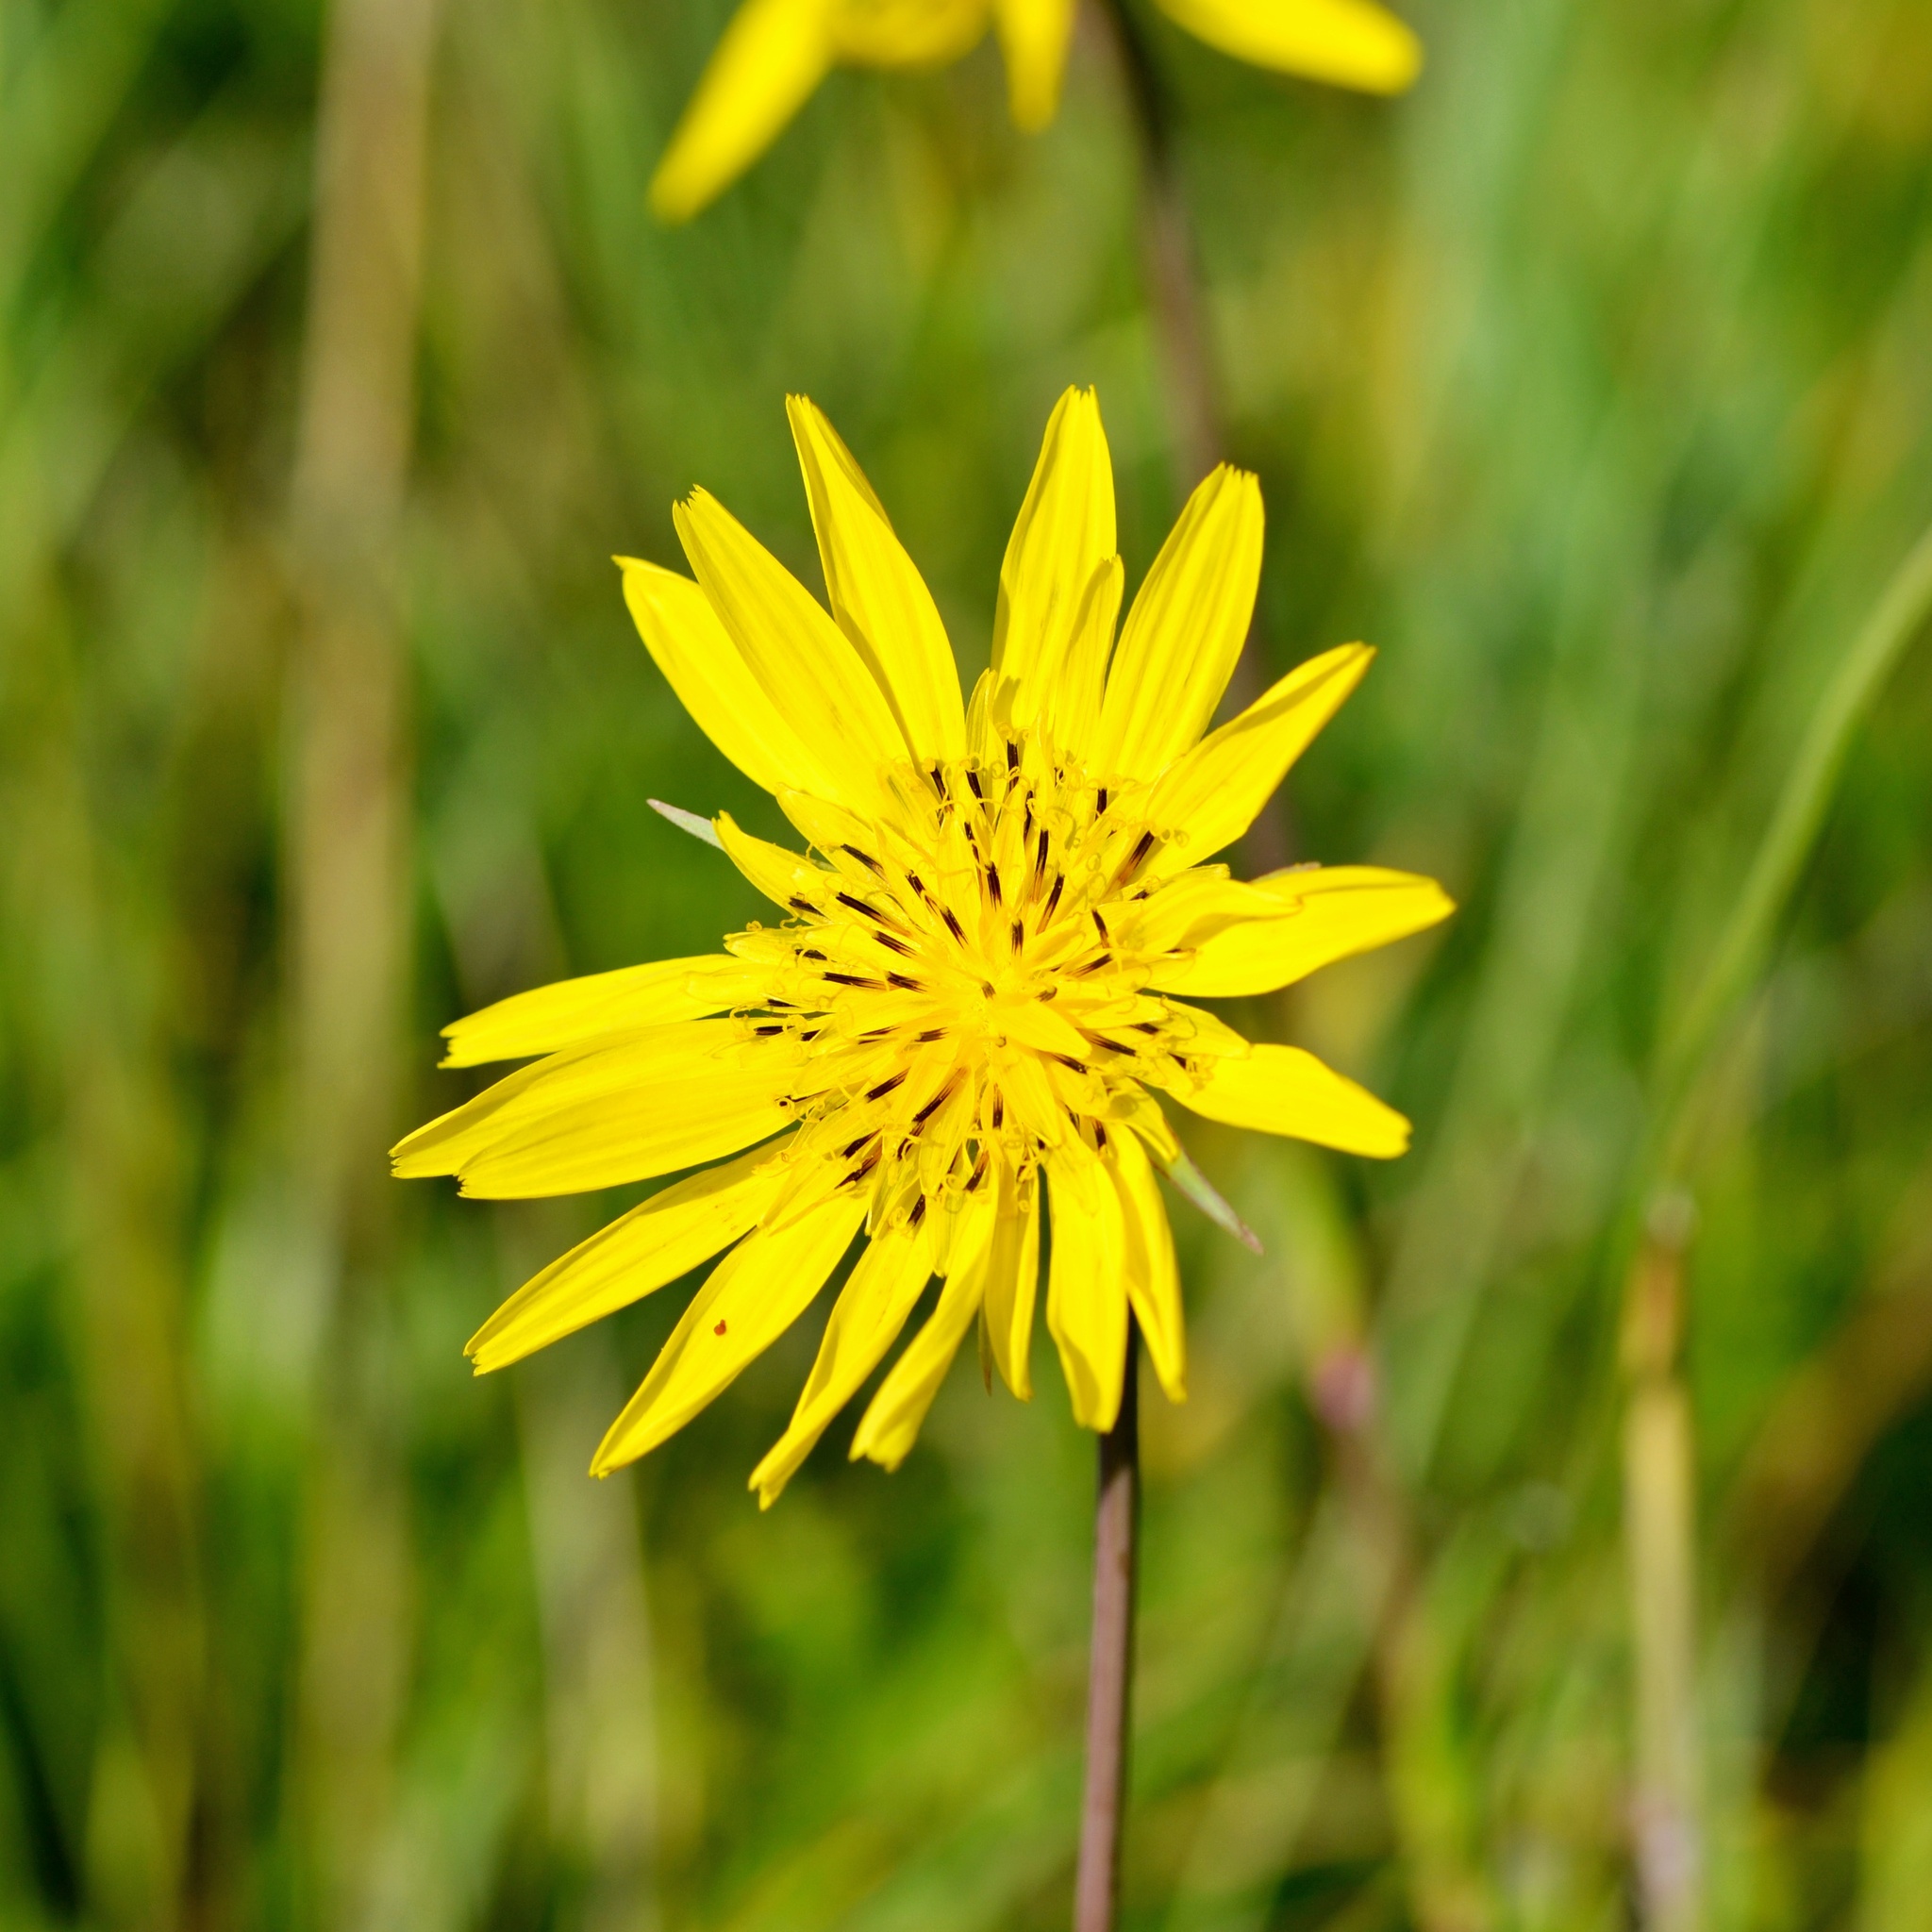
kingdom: Plantae
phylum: Tracheophyta
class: Magnoliopsida
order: Asterales
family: Asteraceae
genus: Tragopogon
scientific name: Tragopogon orientalis
